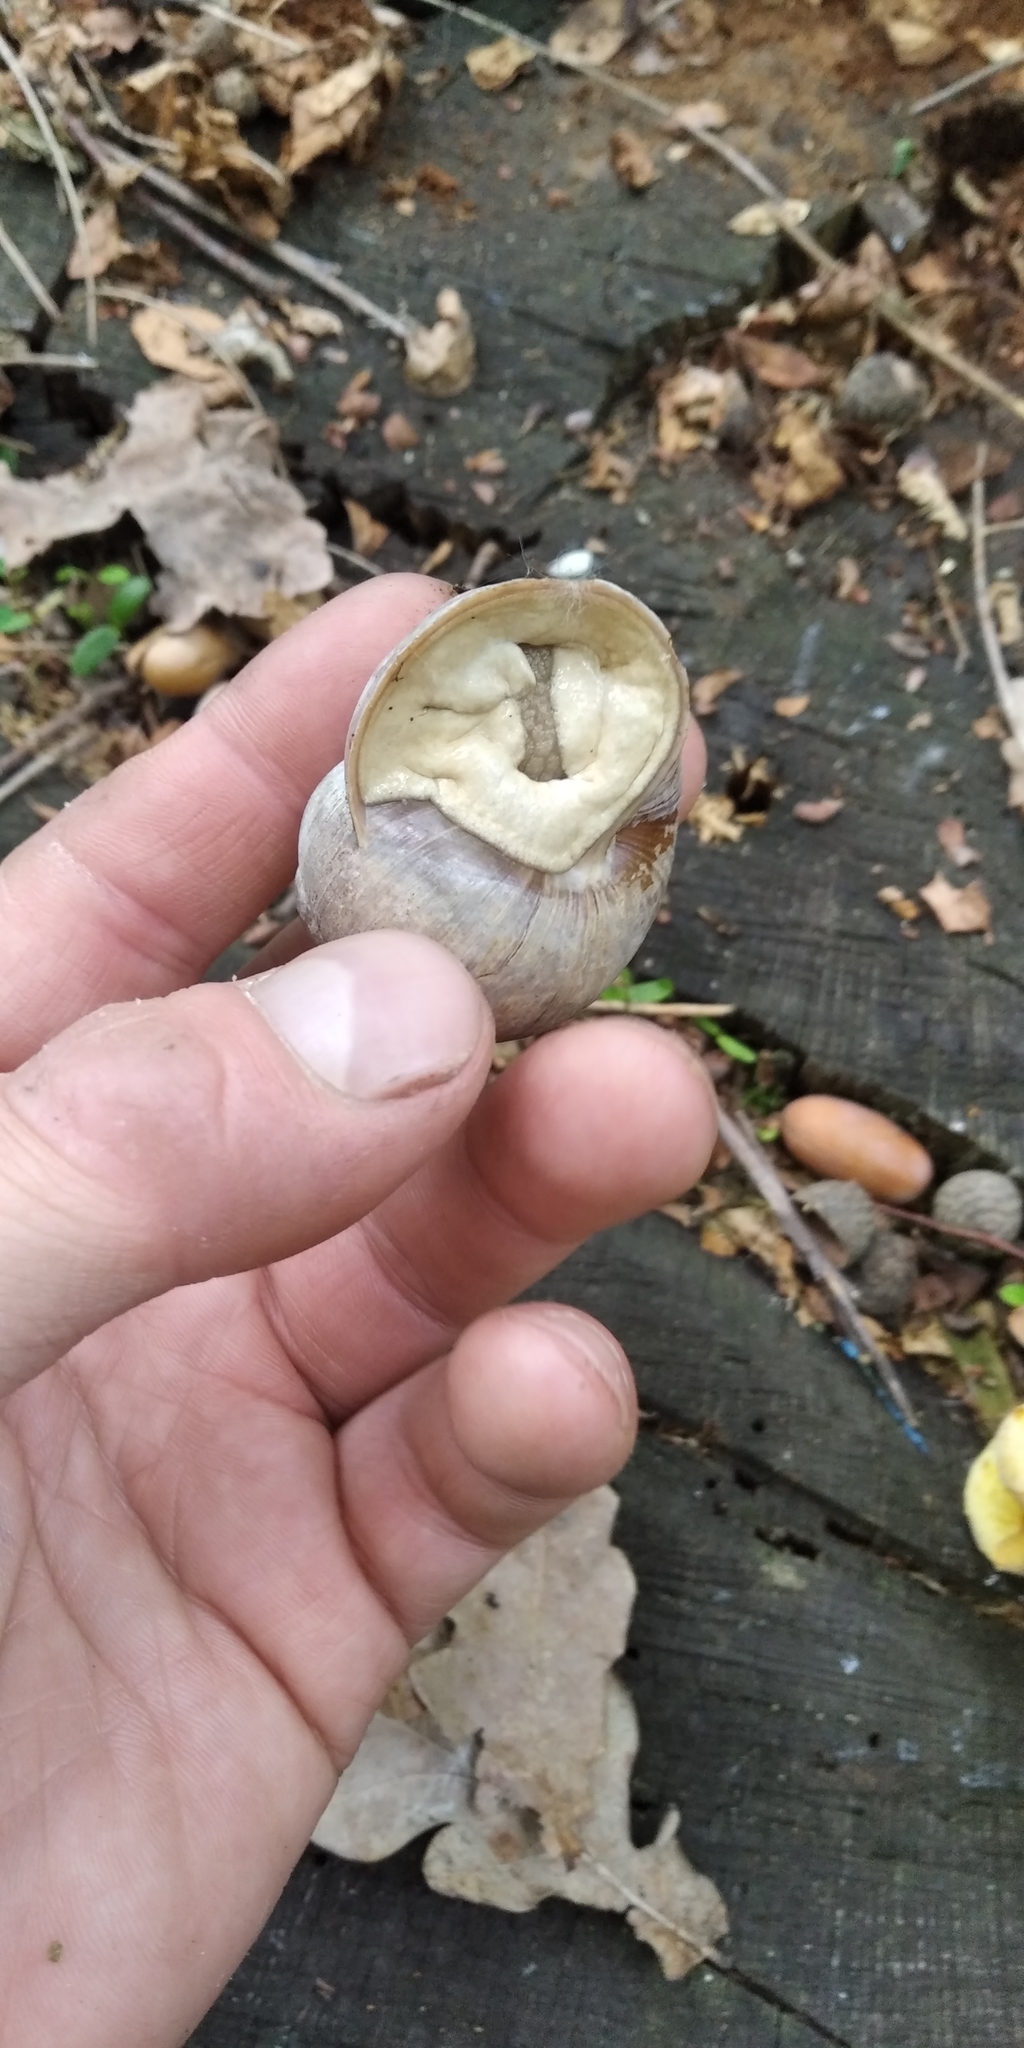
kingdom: Animalia
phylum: Mollusca
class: Gastropoda
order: Stylommatophora
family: Helicidae
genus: Helix
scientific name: Helix pomatia
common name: Roman snail
